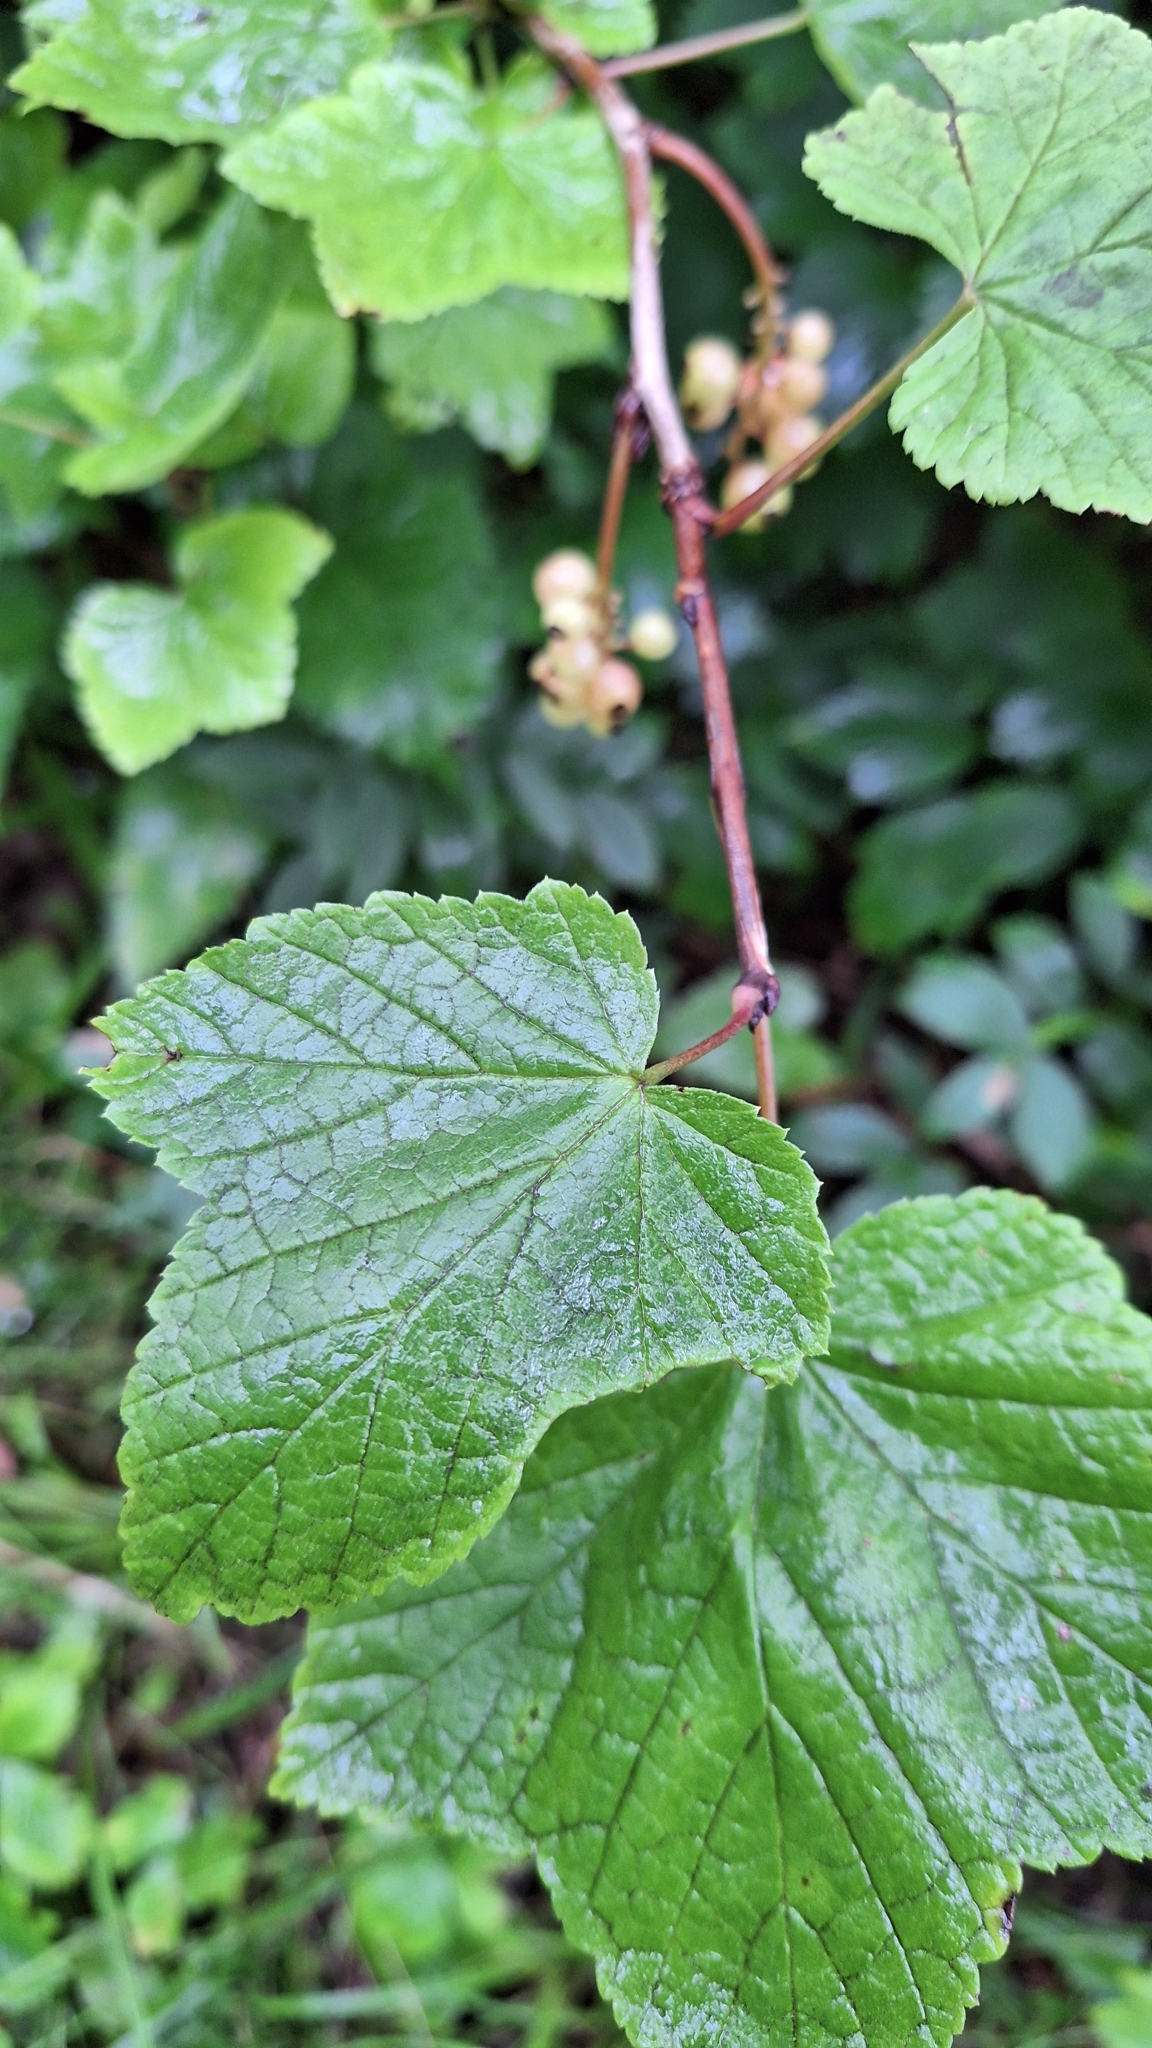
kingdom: Plantae
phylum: Tracheophyta
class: Magnoliopsida
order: Saxifragales
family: Grossulariaceae
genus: Ribes
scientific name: Ribes mandshuricum
